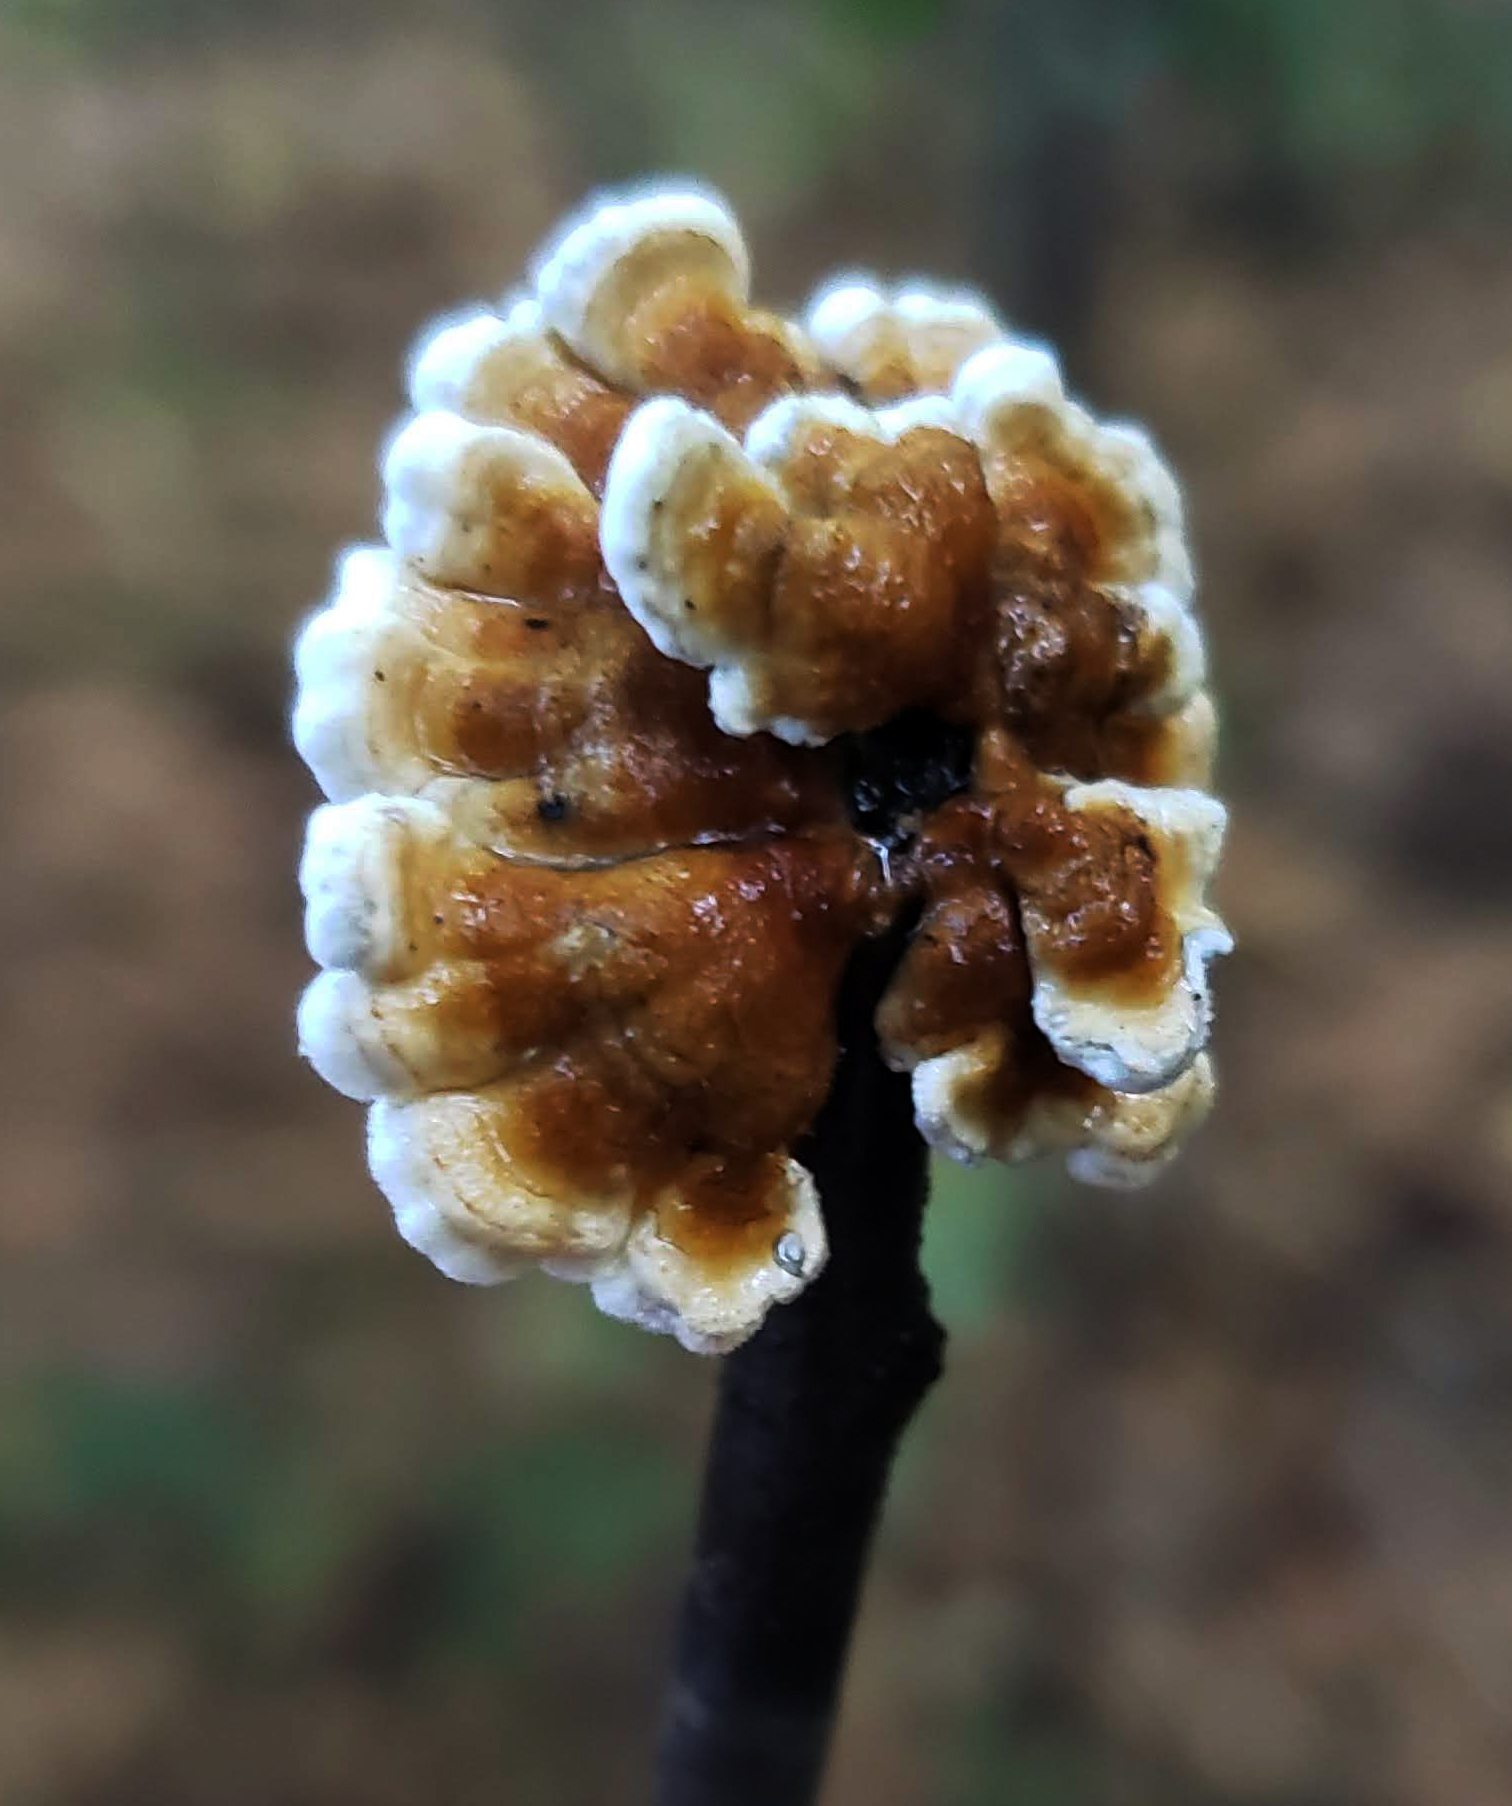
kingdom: Fungi
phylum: Basidiomycota
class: Agaricomycetes
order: Amylocorticiales
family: Amylocorticiaceae
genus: Plicaturopsis
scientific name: Plicaturopsis crispa
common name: Crimped gill
